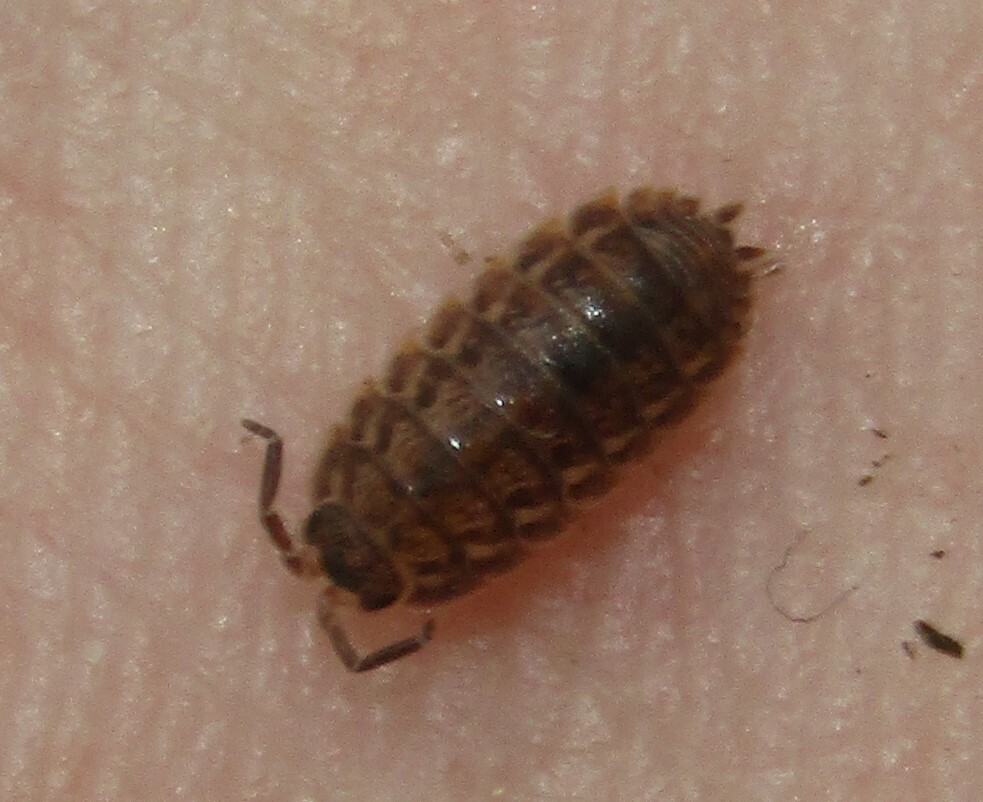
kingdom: Animalia
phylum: Arthropoda
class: Malacostraca
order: Isopoda
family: Trachelipodidae
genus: Trachelipus
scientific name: Trachelipus rathkii
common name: Isopod
